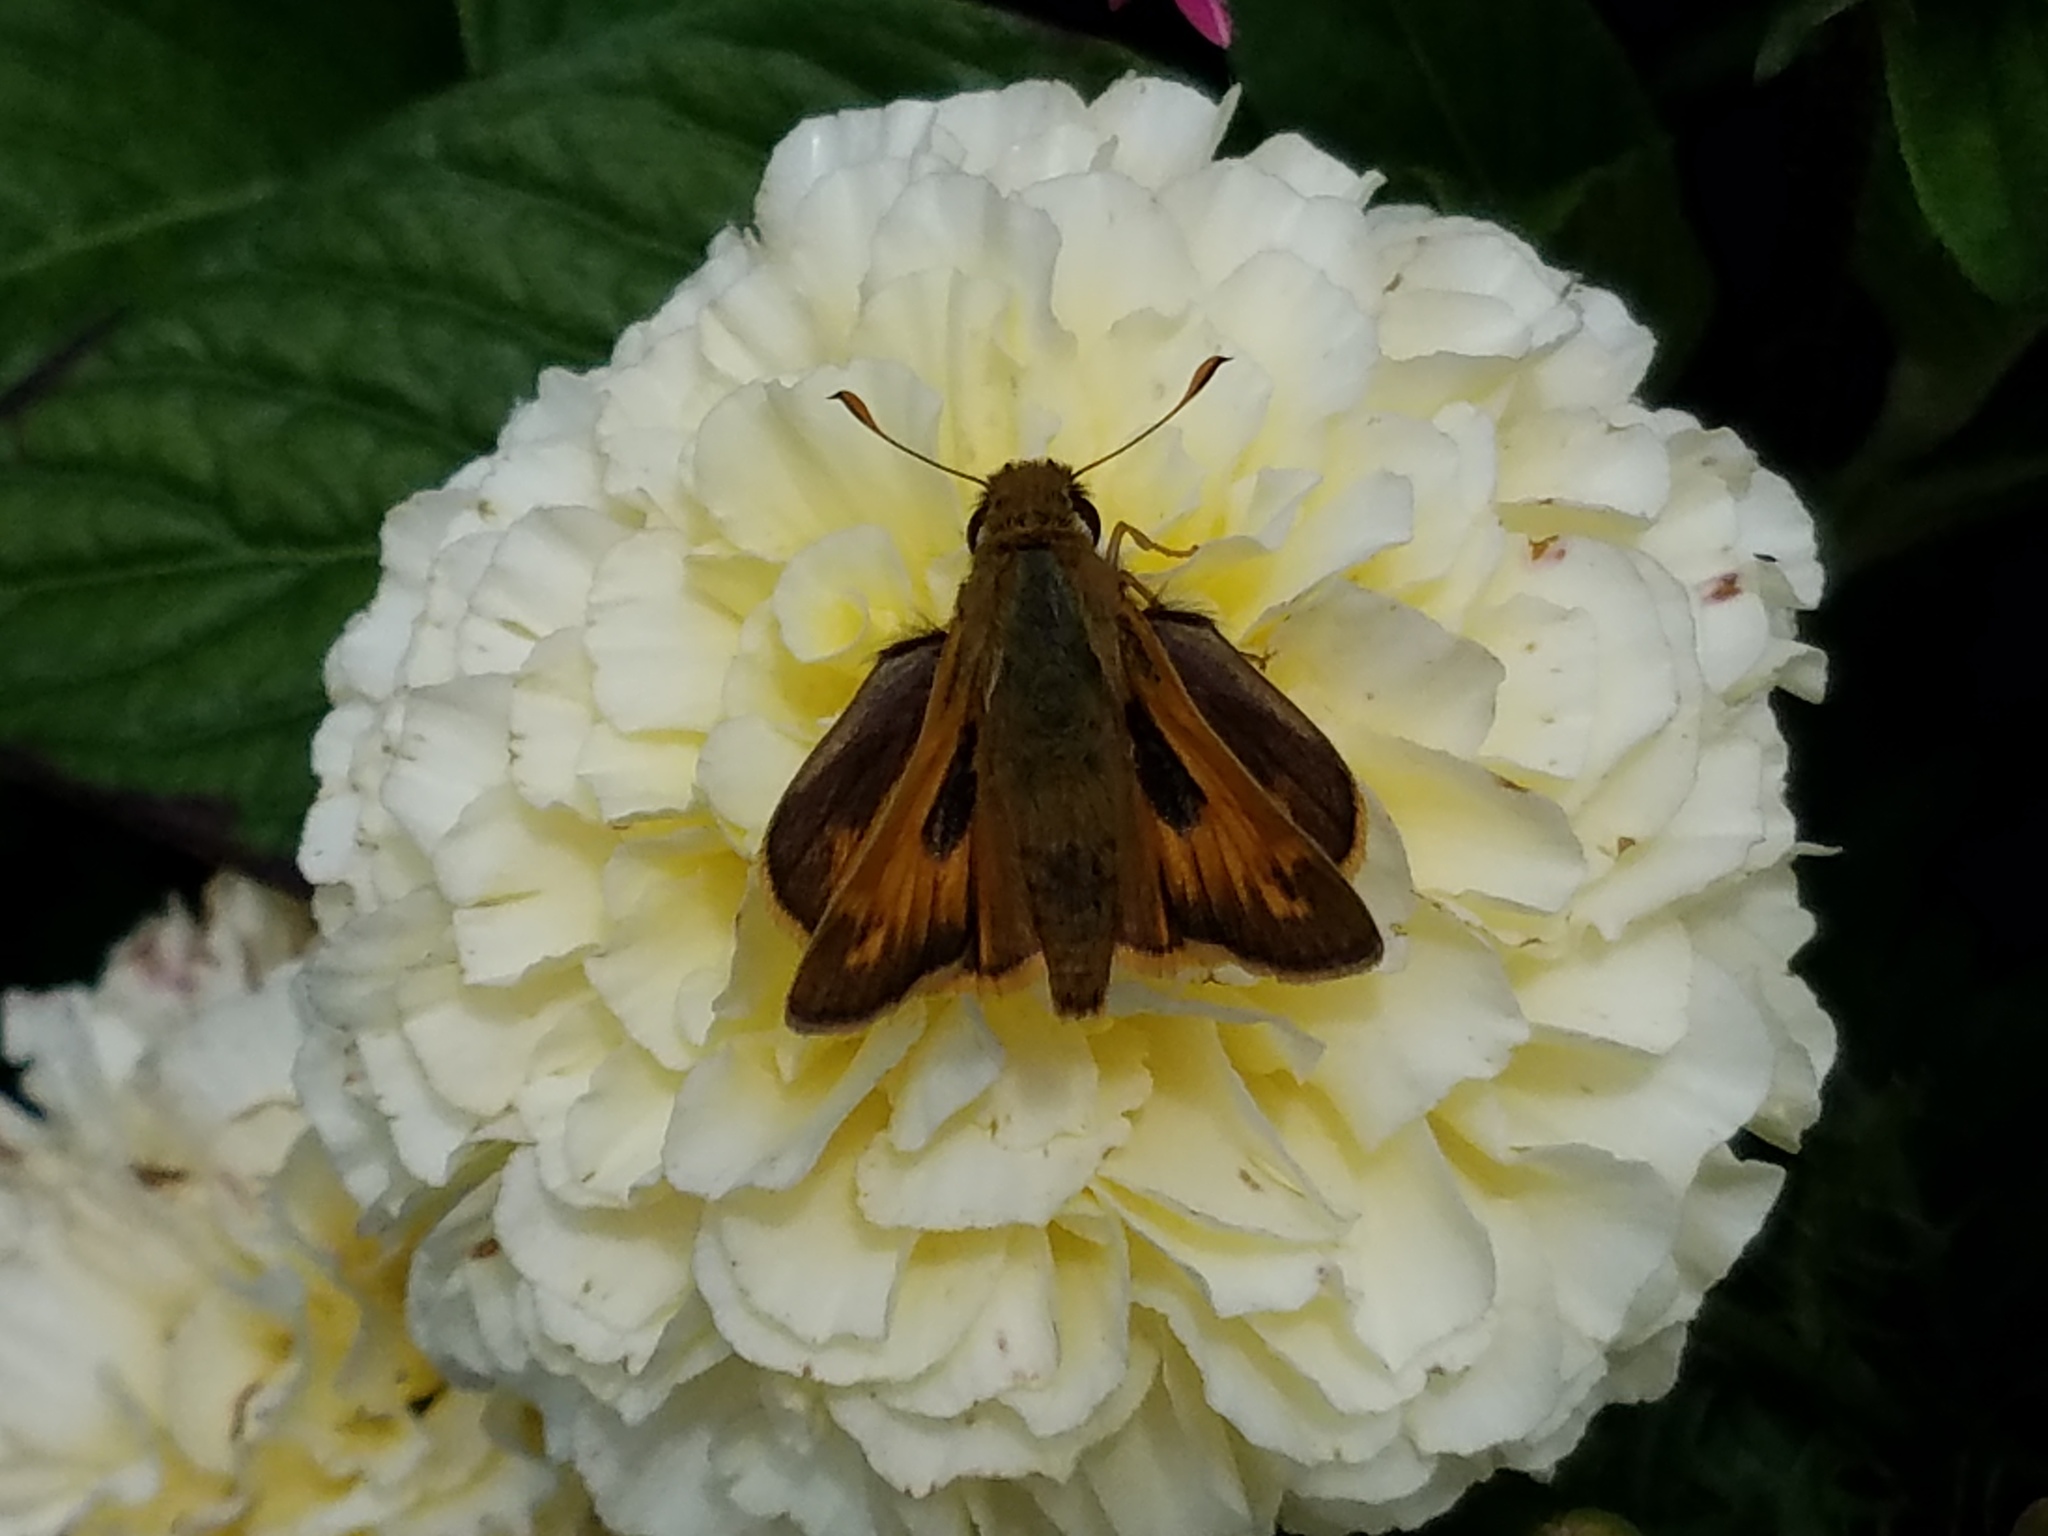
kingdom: Animalia
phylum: Arthropoda
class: Insecta
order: Lepidoptera
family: Hesperiidae
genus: Atalopedes
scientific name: Atalopedes
